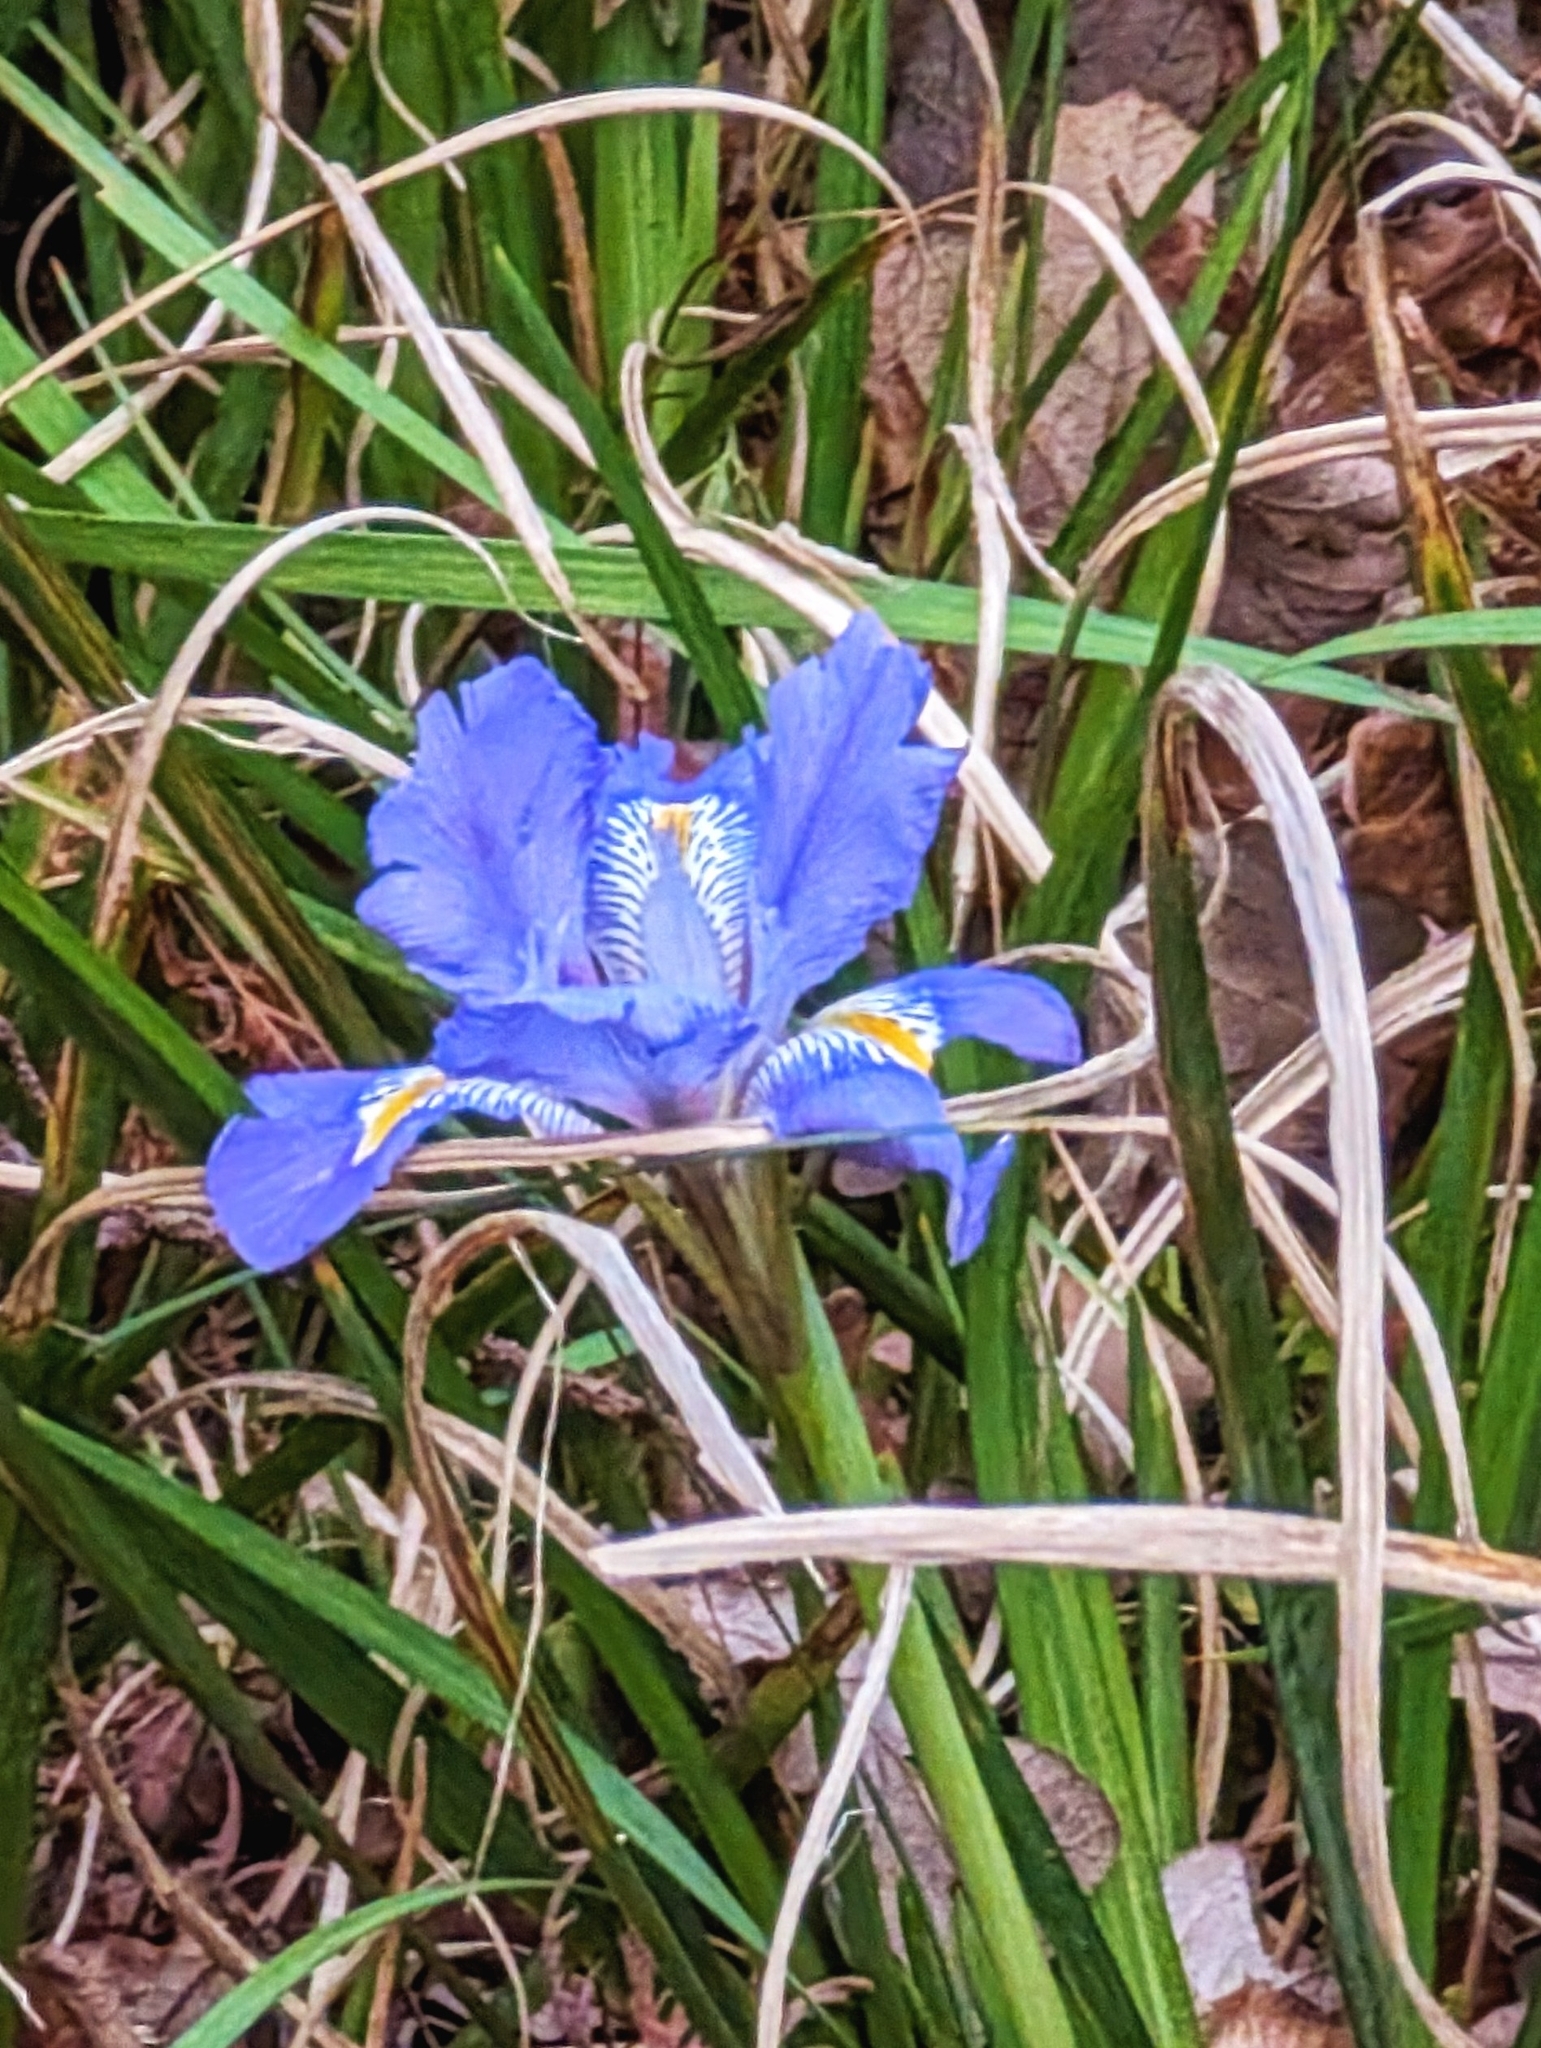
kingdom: Plantae
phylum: Tracheophyta
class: Liliopsida
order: Asparagales
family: Iridaceae
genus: Iris
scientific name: Iris unguicularis
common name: Algerian iris
